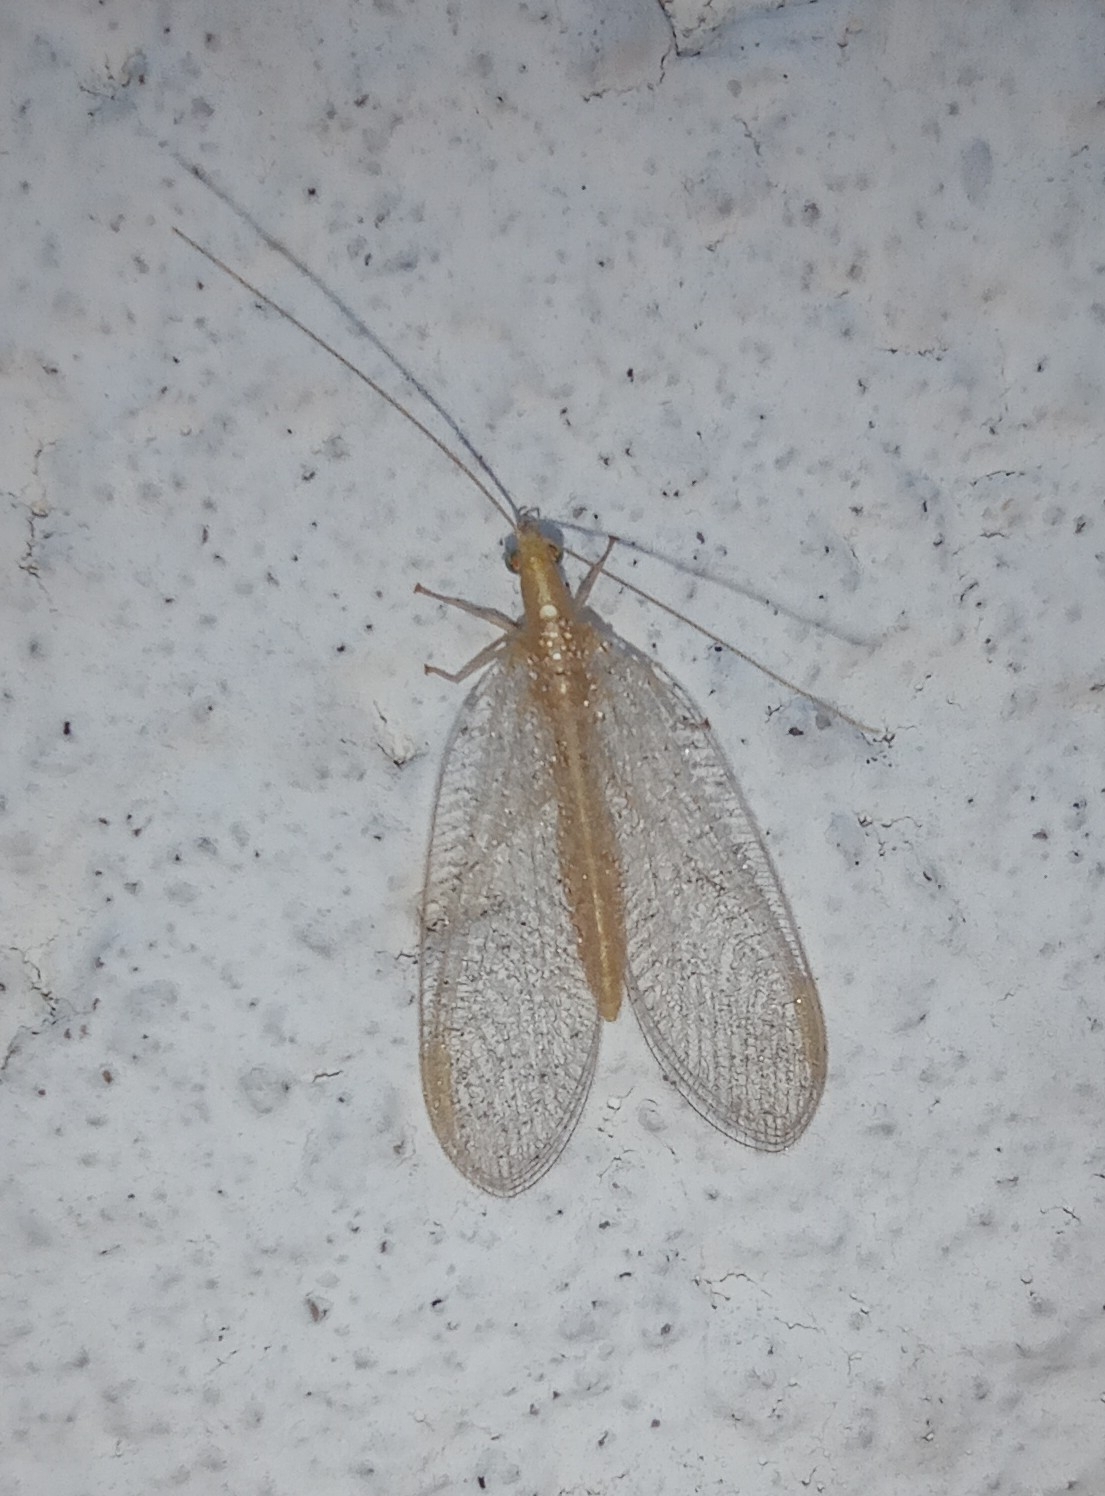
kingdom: Animalia
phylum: Arthropoda
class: Insecta
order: Neuroptera
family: Chrysopidae
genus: Chrysoperla
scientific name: Chrysoperla
